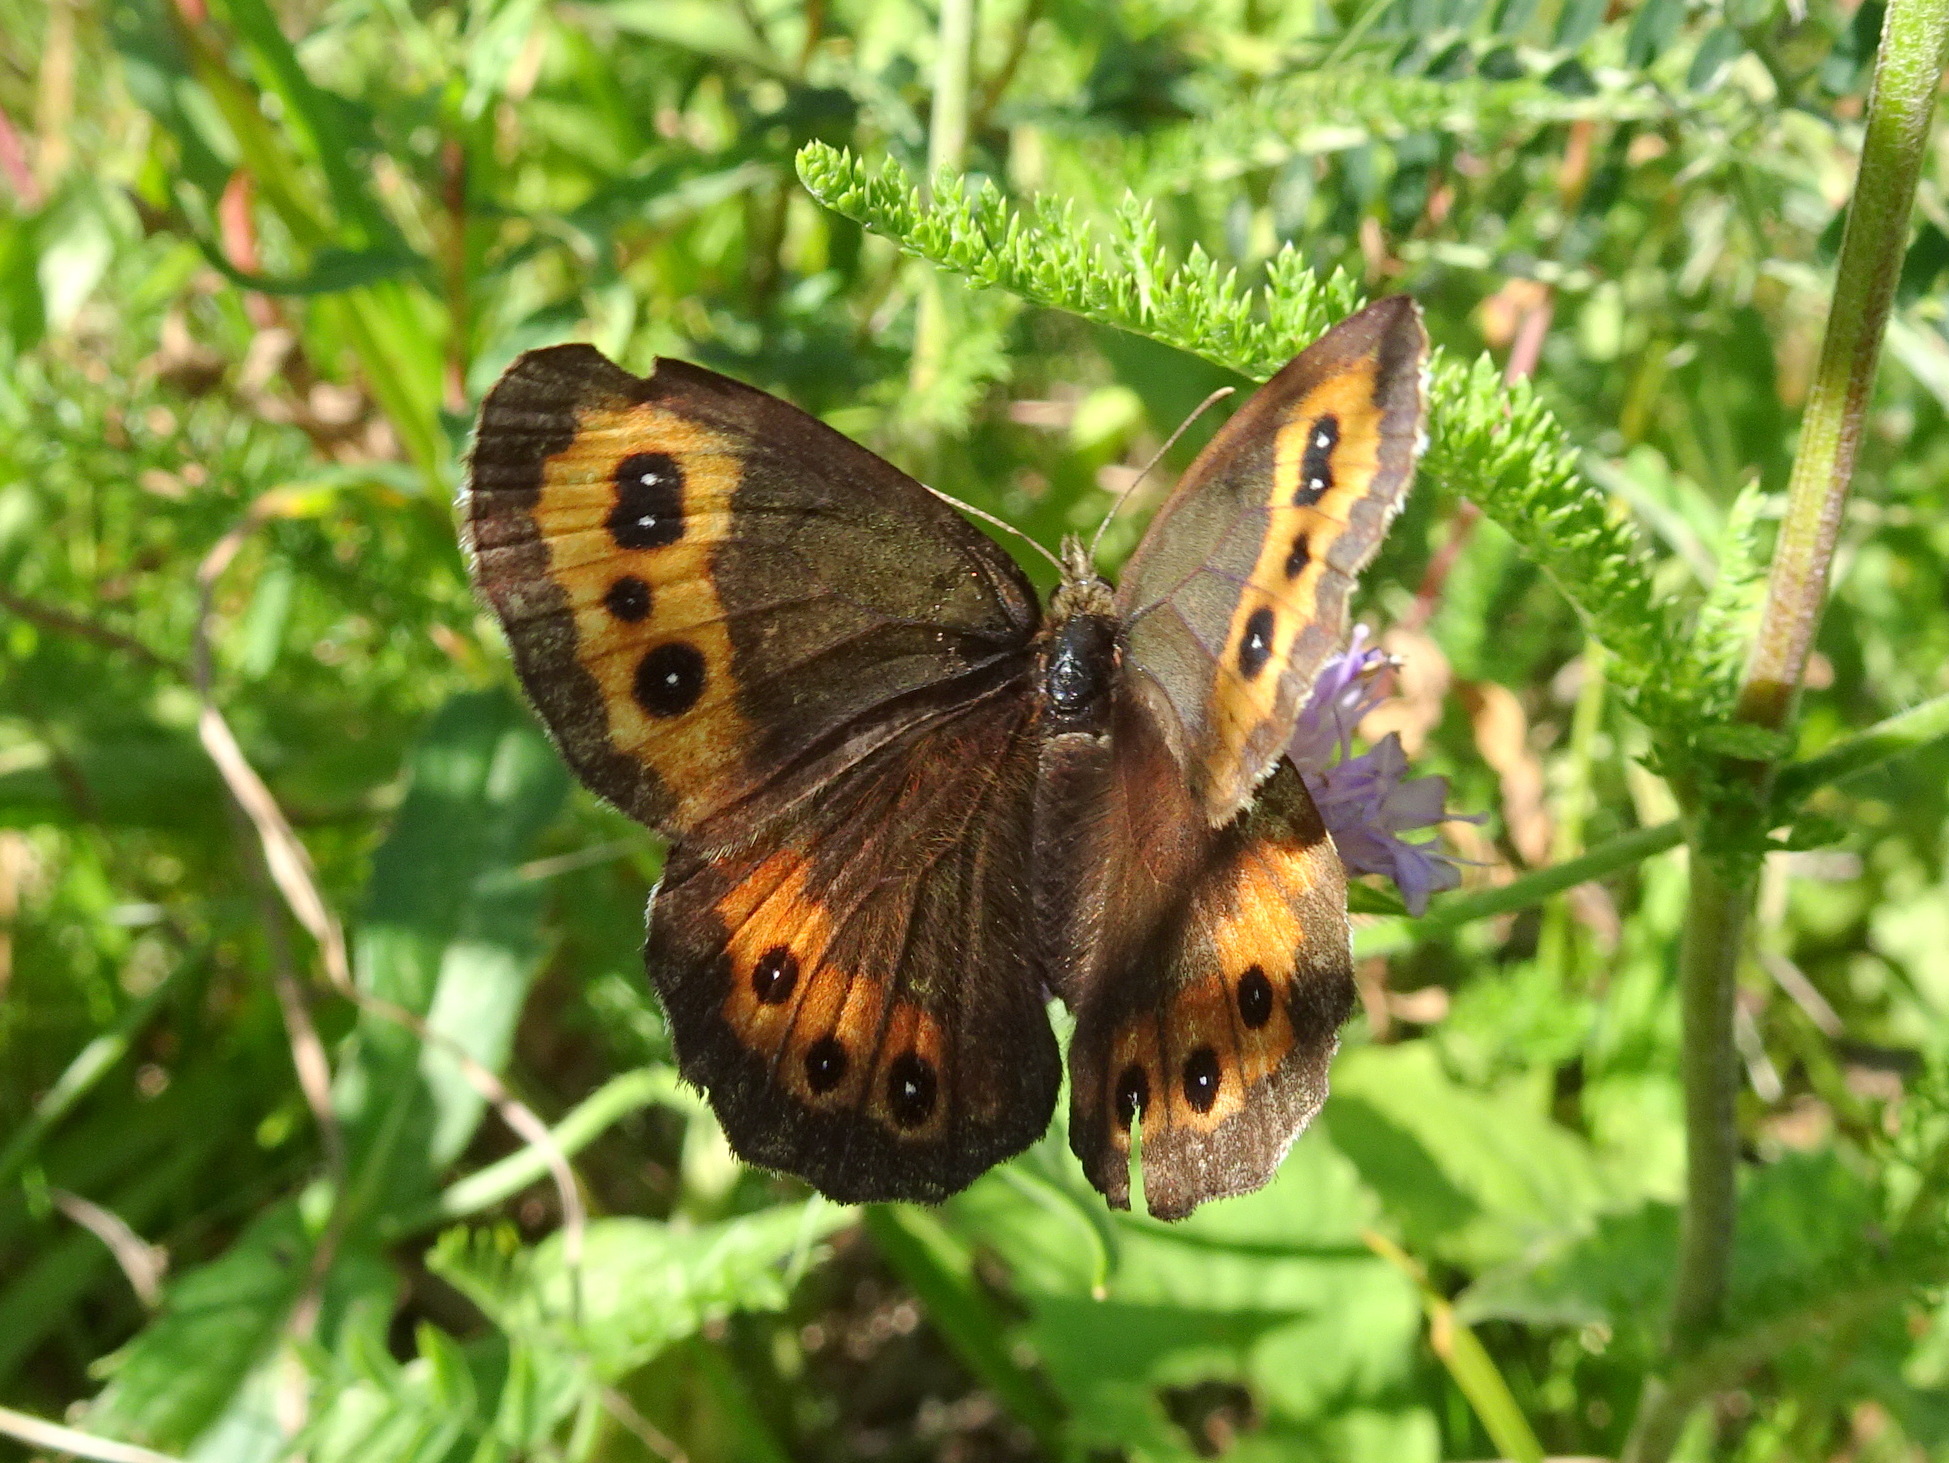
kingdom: Animalia
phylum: Arthropoda
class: Insecta
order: Lepidoptera
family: Nymphalidae
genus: Erebia
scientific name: Erebia ligea
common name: Arran brown
